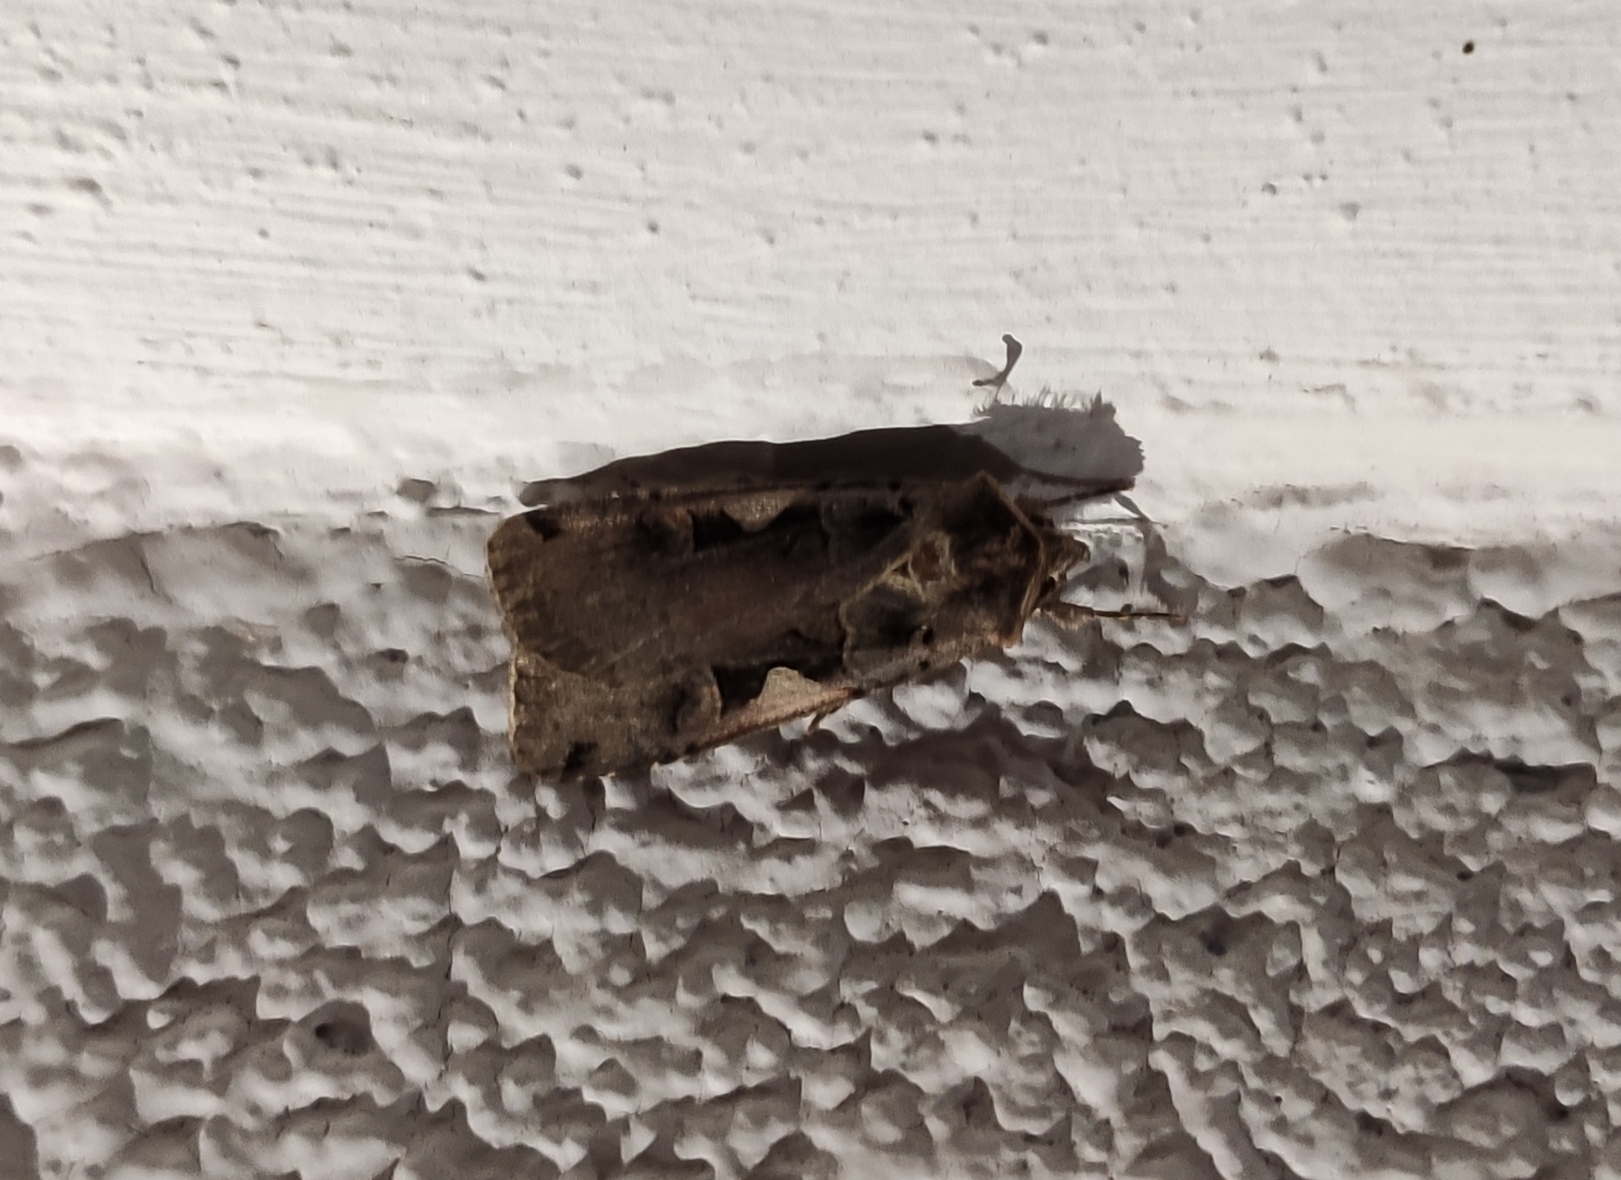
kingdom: Animalia
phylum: Arthropoda
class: Insecta
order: Lepidoptera
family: Noctuidae
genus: Xestia
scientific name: Xestia c-nigrum
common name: Setaceous hebrew character
